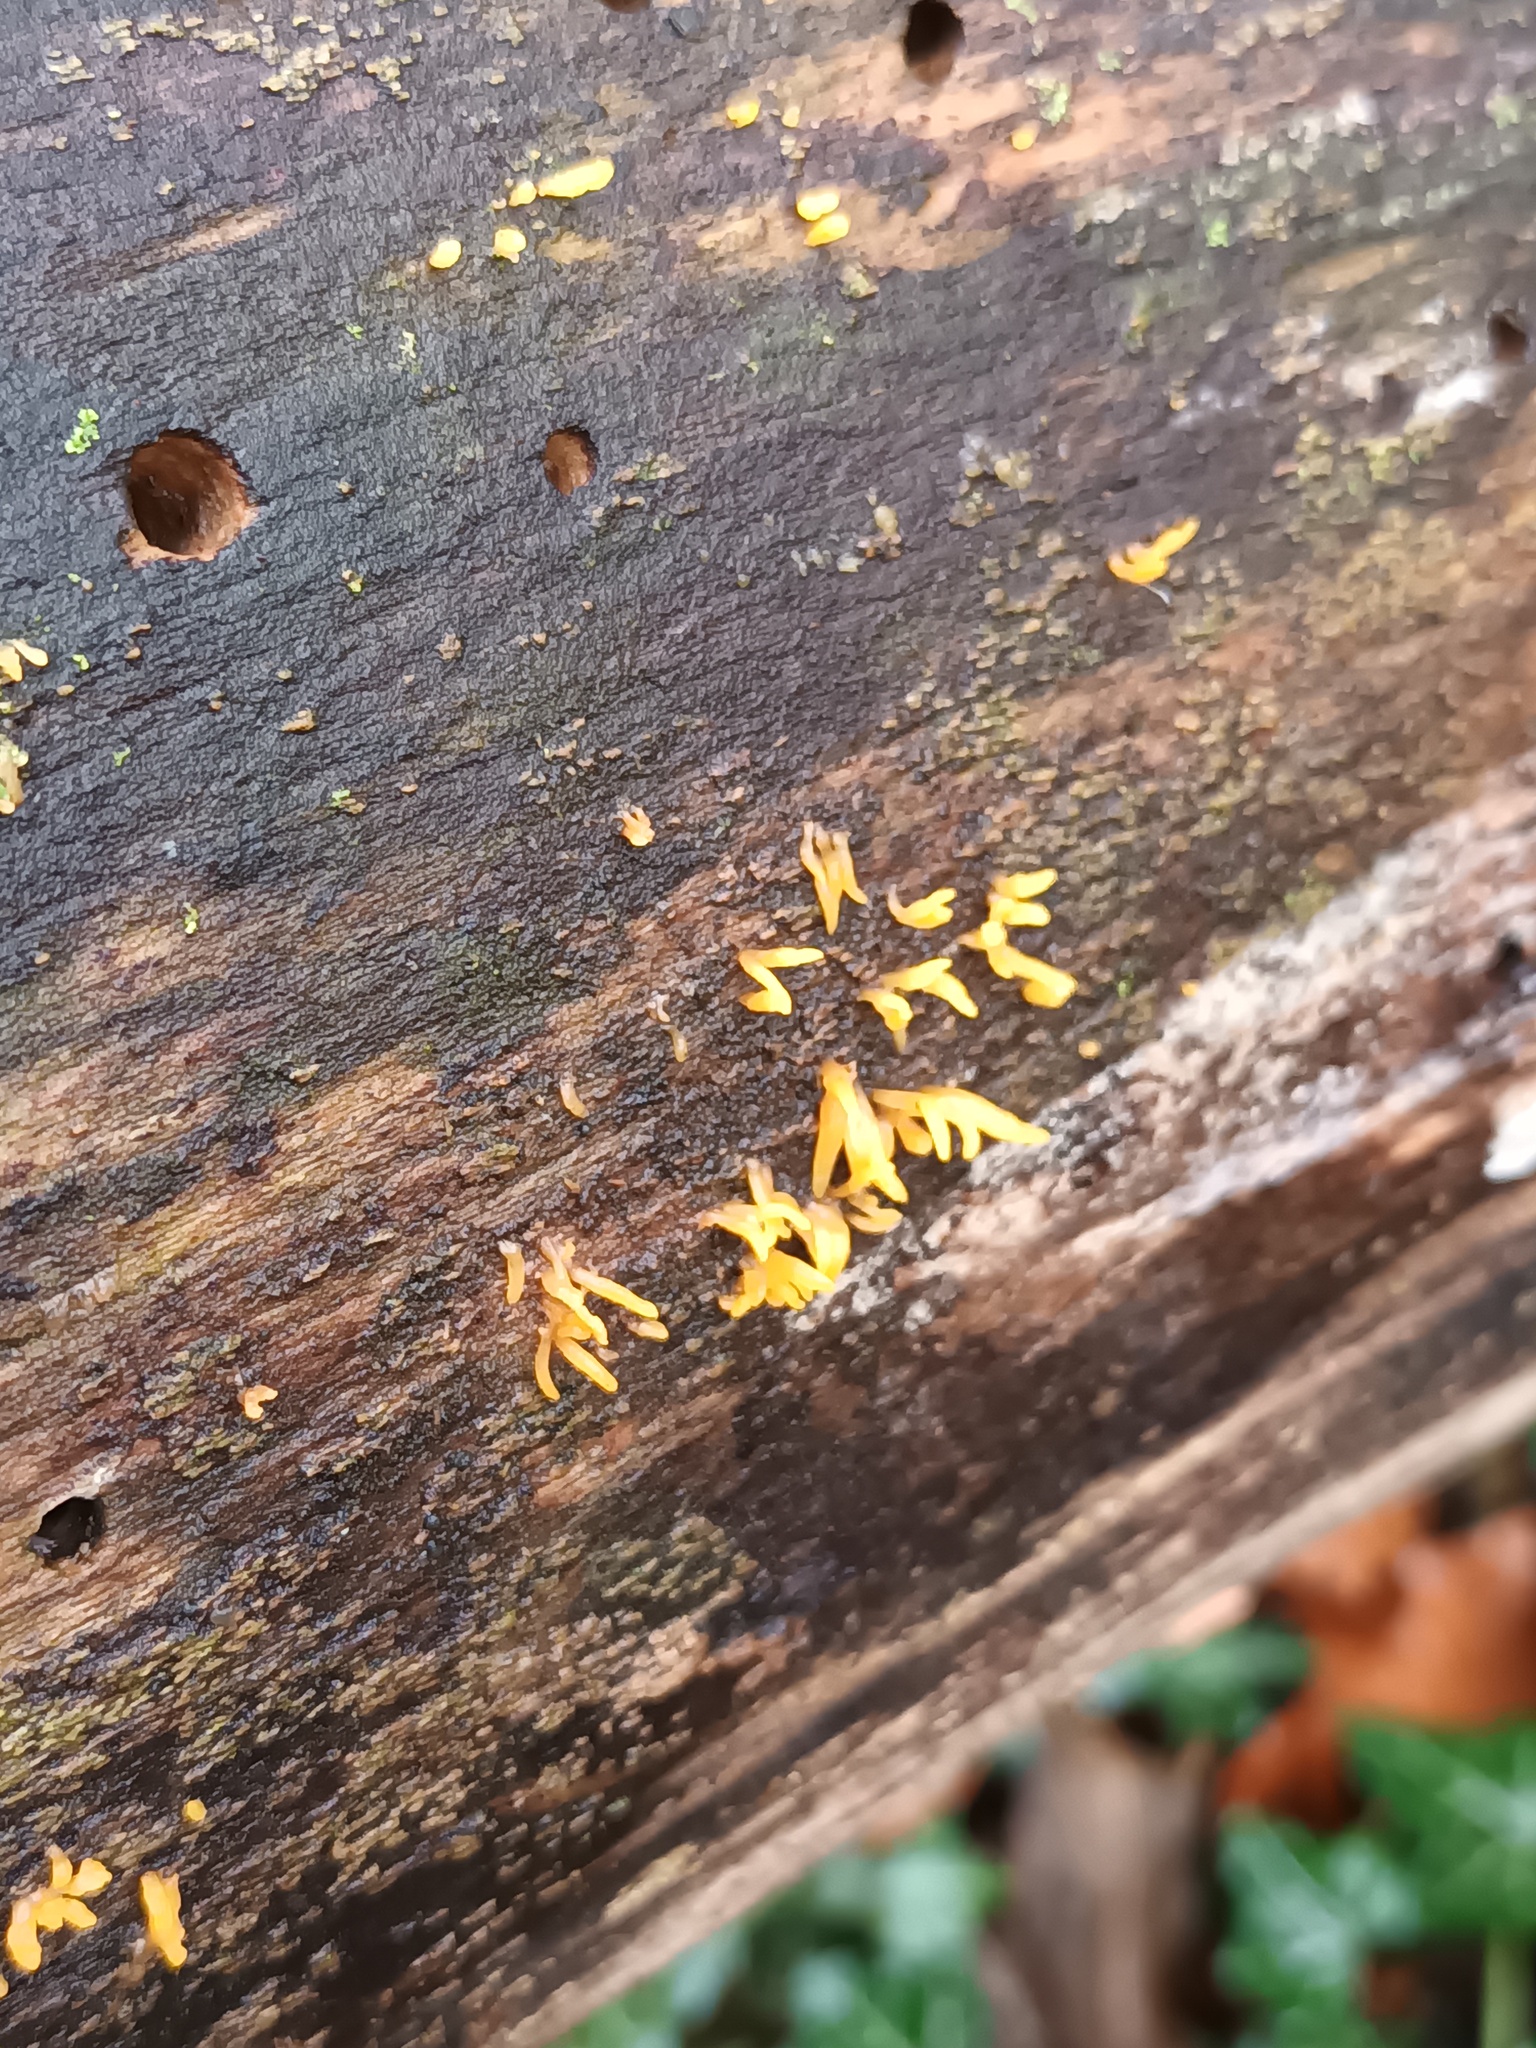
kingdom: Fungi
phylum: Basidiomycota
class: Dacrymycetes
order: Dacrymycetales
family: Dacrymycetaceae
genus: Calocera
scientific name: Calocera cornea
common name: Small stagshorn
